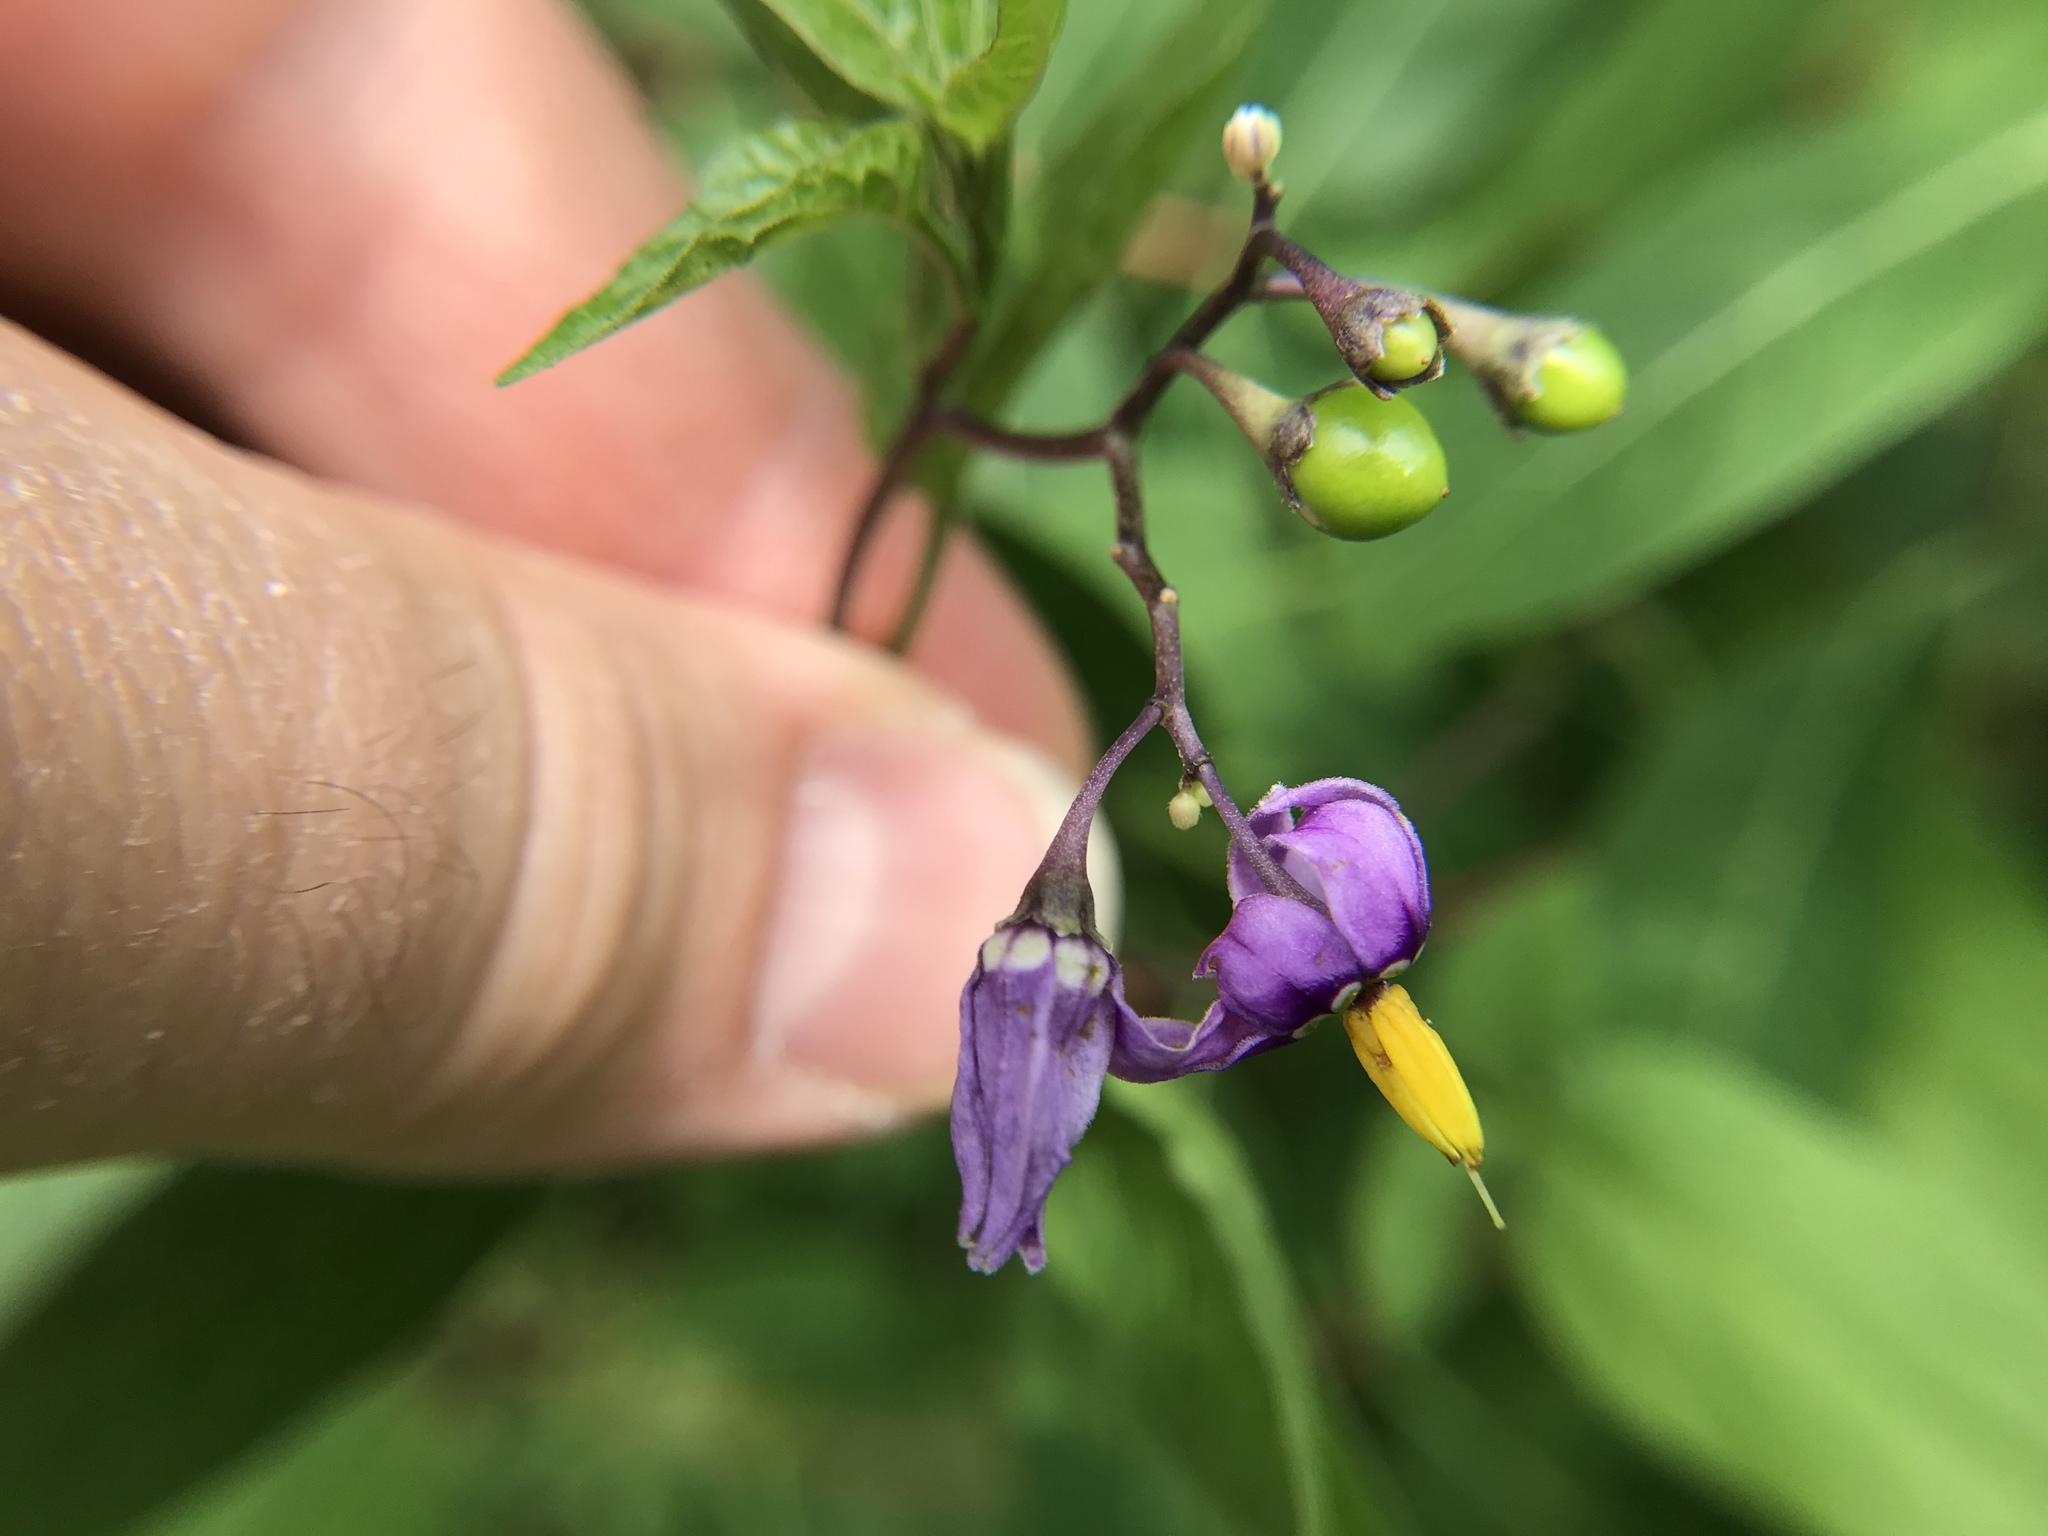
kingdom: Plantae
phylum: Tracheophyta
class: Magnoliopsida
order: Solanales
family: Solanaceae
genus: Solanum
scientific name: Solanum dulcamara
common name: Climbing nightshade
